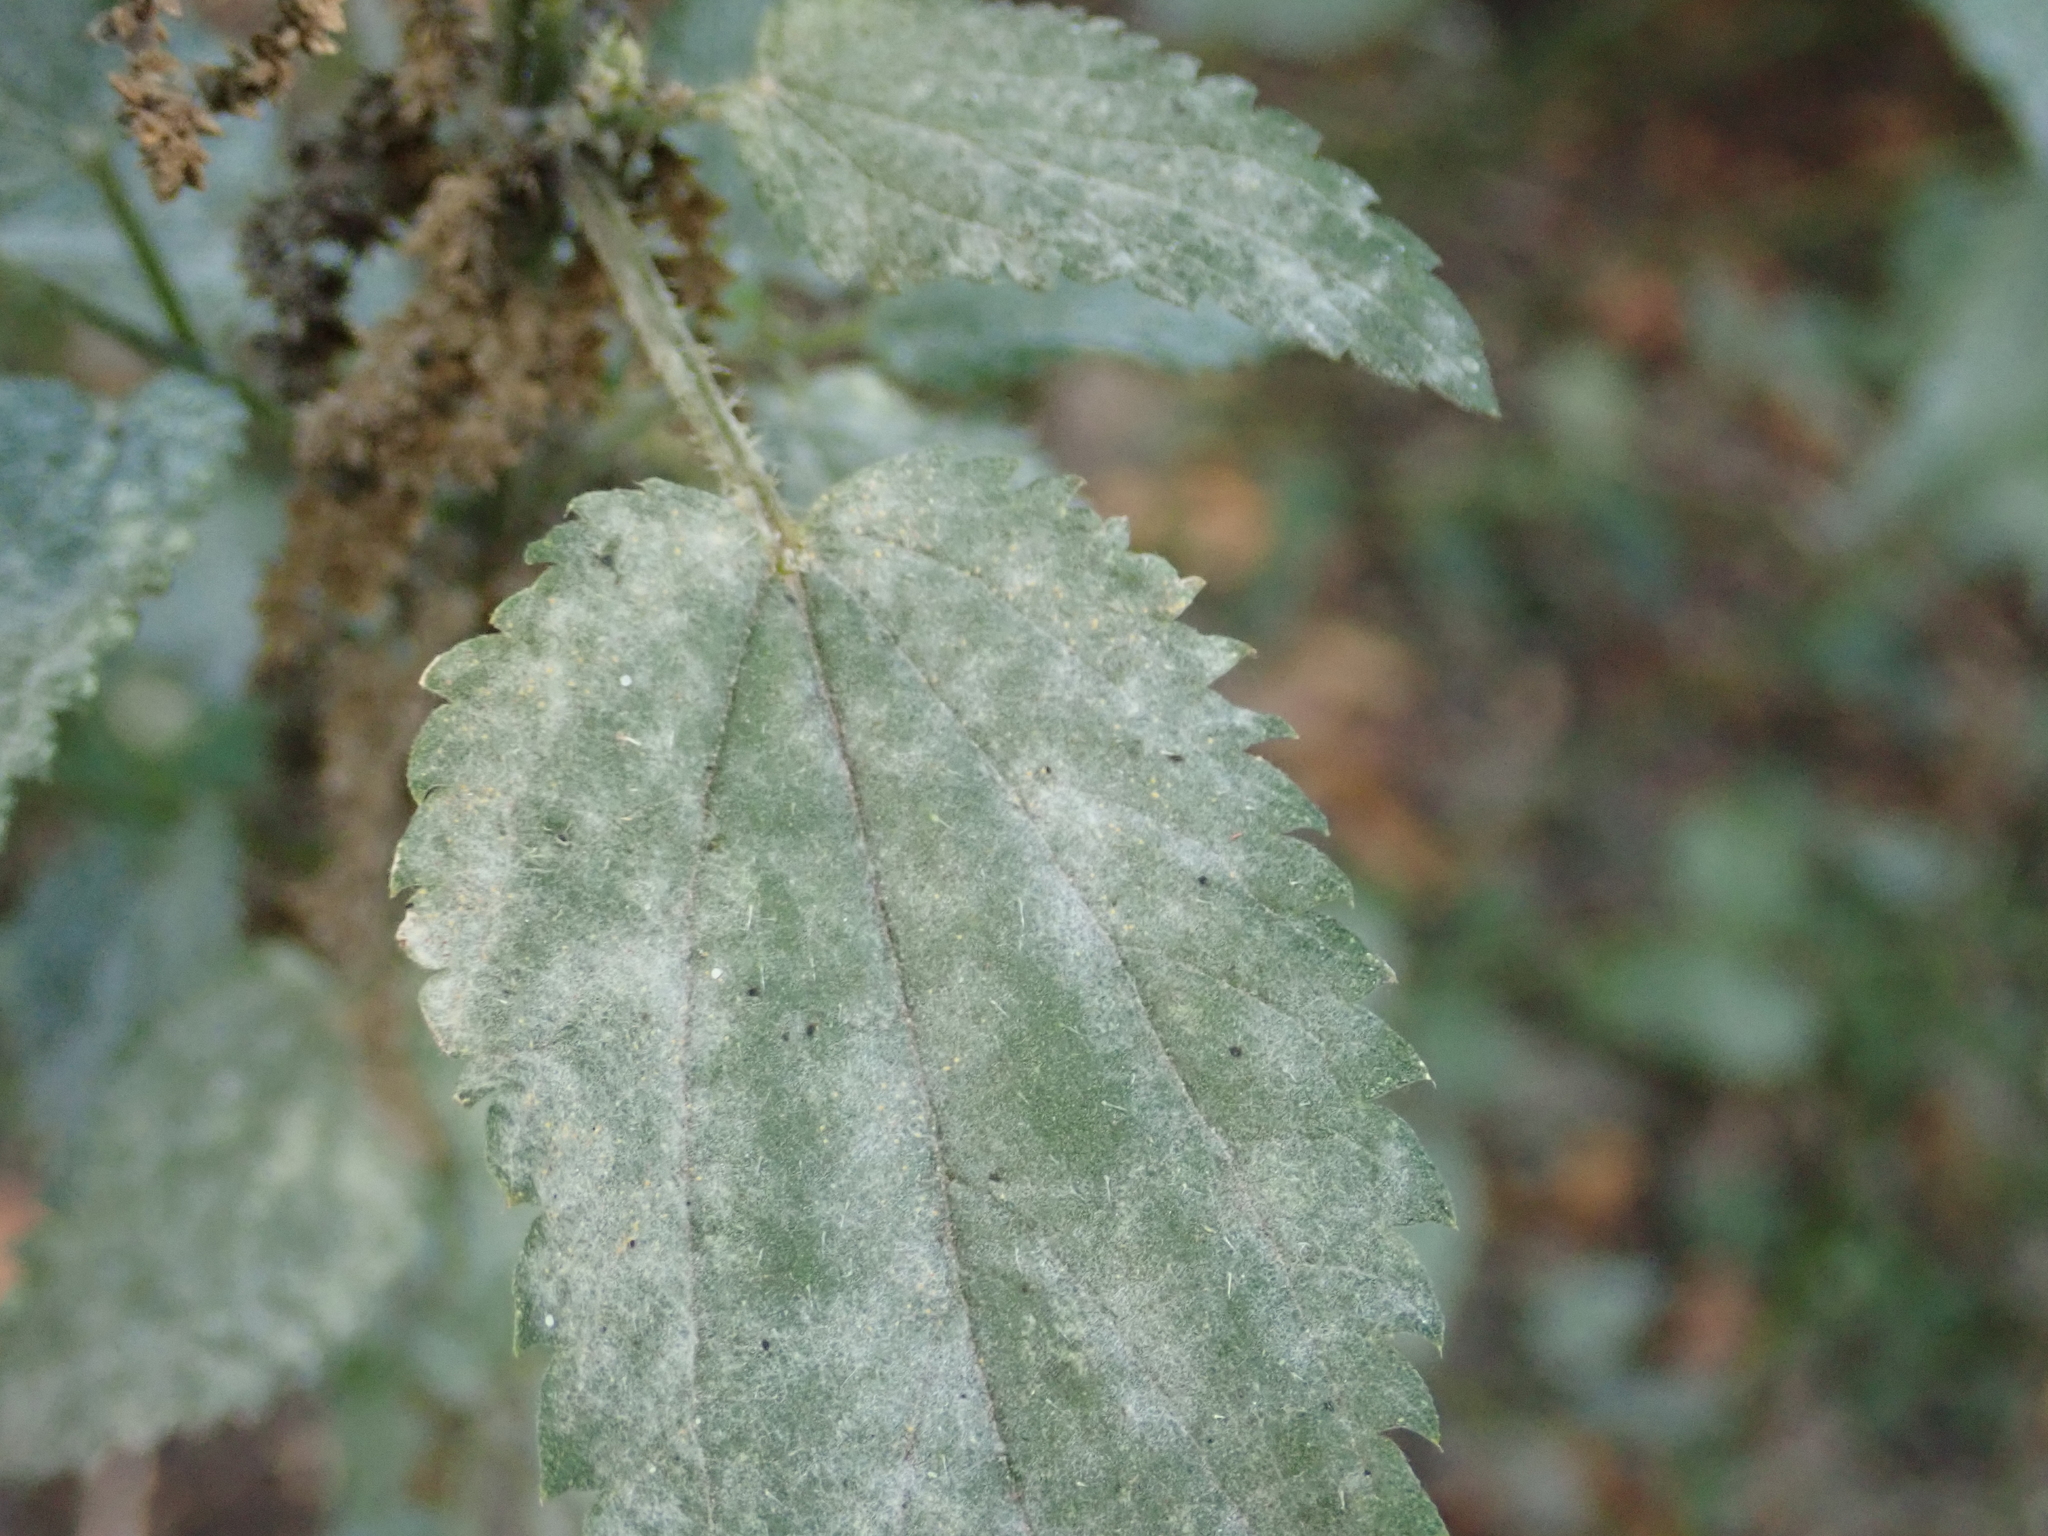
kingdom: Fungi
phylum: Ascomycota
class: Leotiomycetes
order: Helotiales
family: Erysiphaceae
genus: Erysiphe
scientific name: Erysiphe urticae
